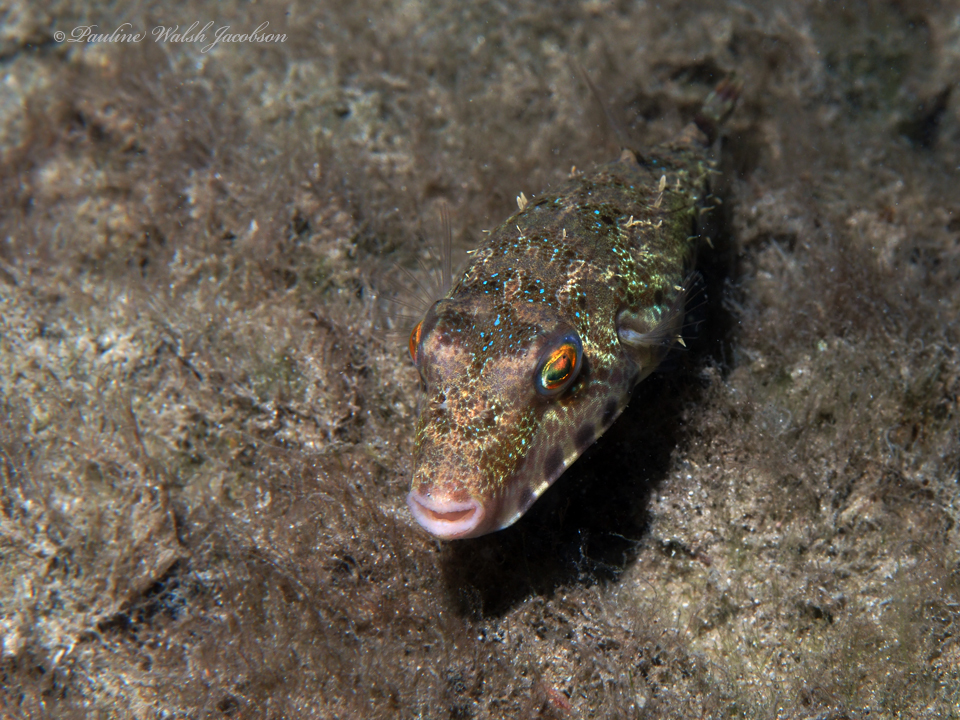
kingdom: Animalia
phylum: Chordata
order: Tetraodontiformes
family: Tetraodontidae
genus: Sphoeroides
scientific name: Sphoeroides spengleri
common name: Bandtail puffer
